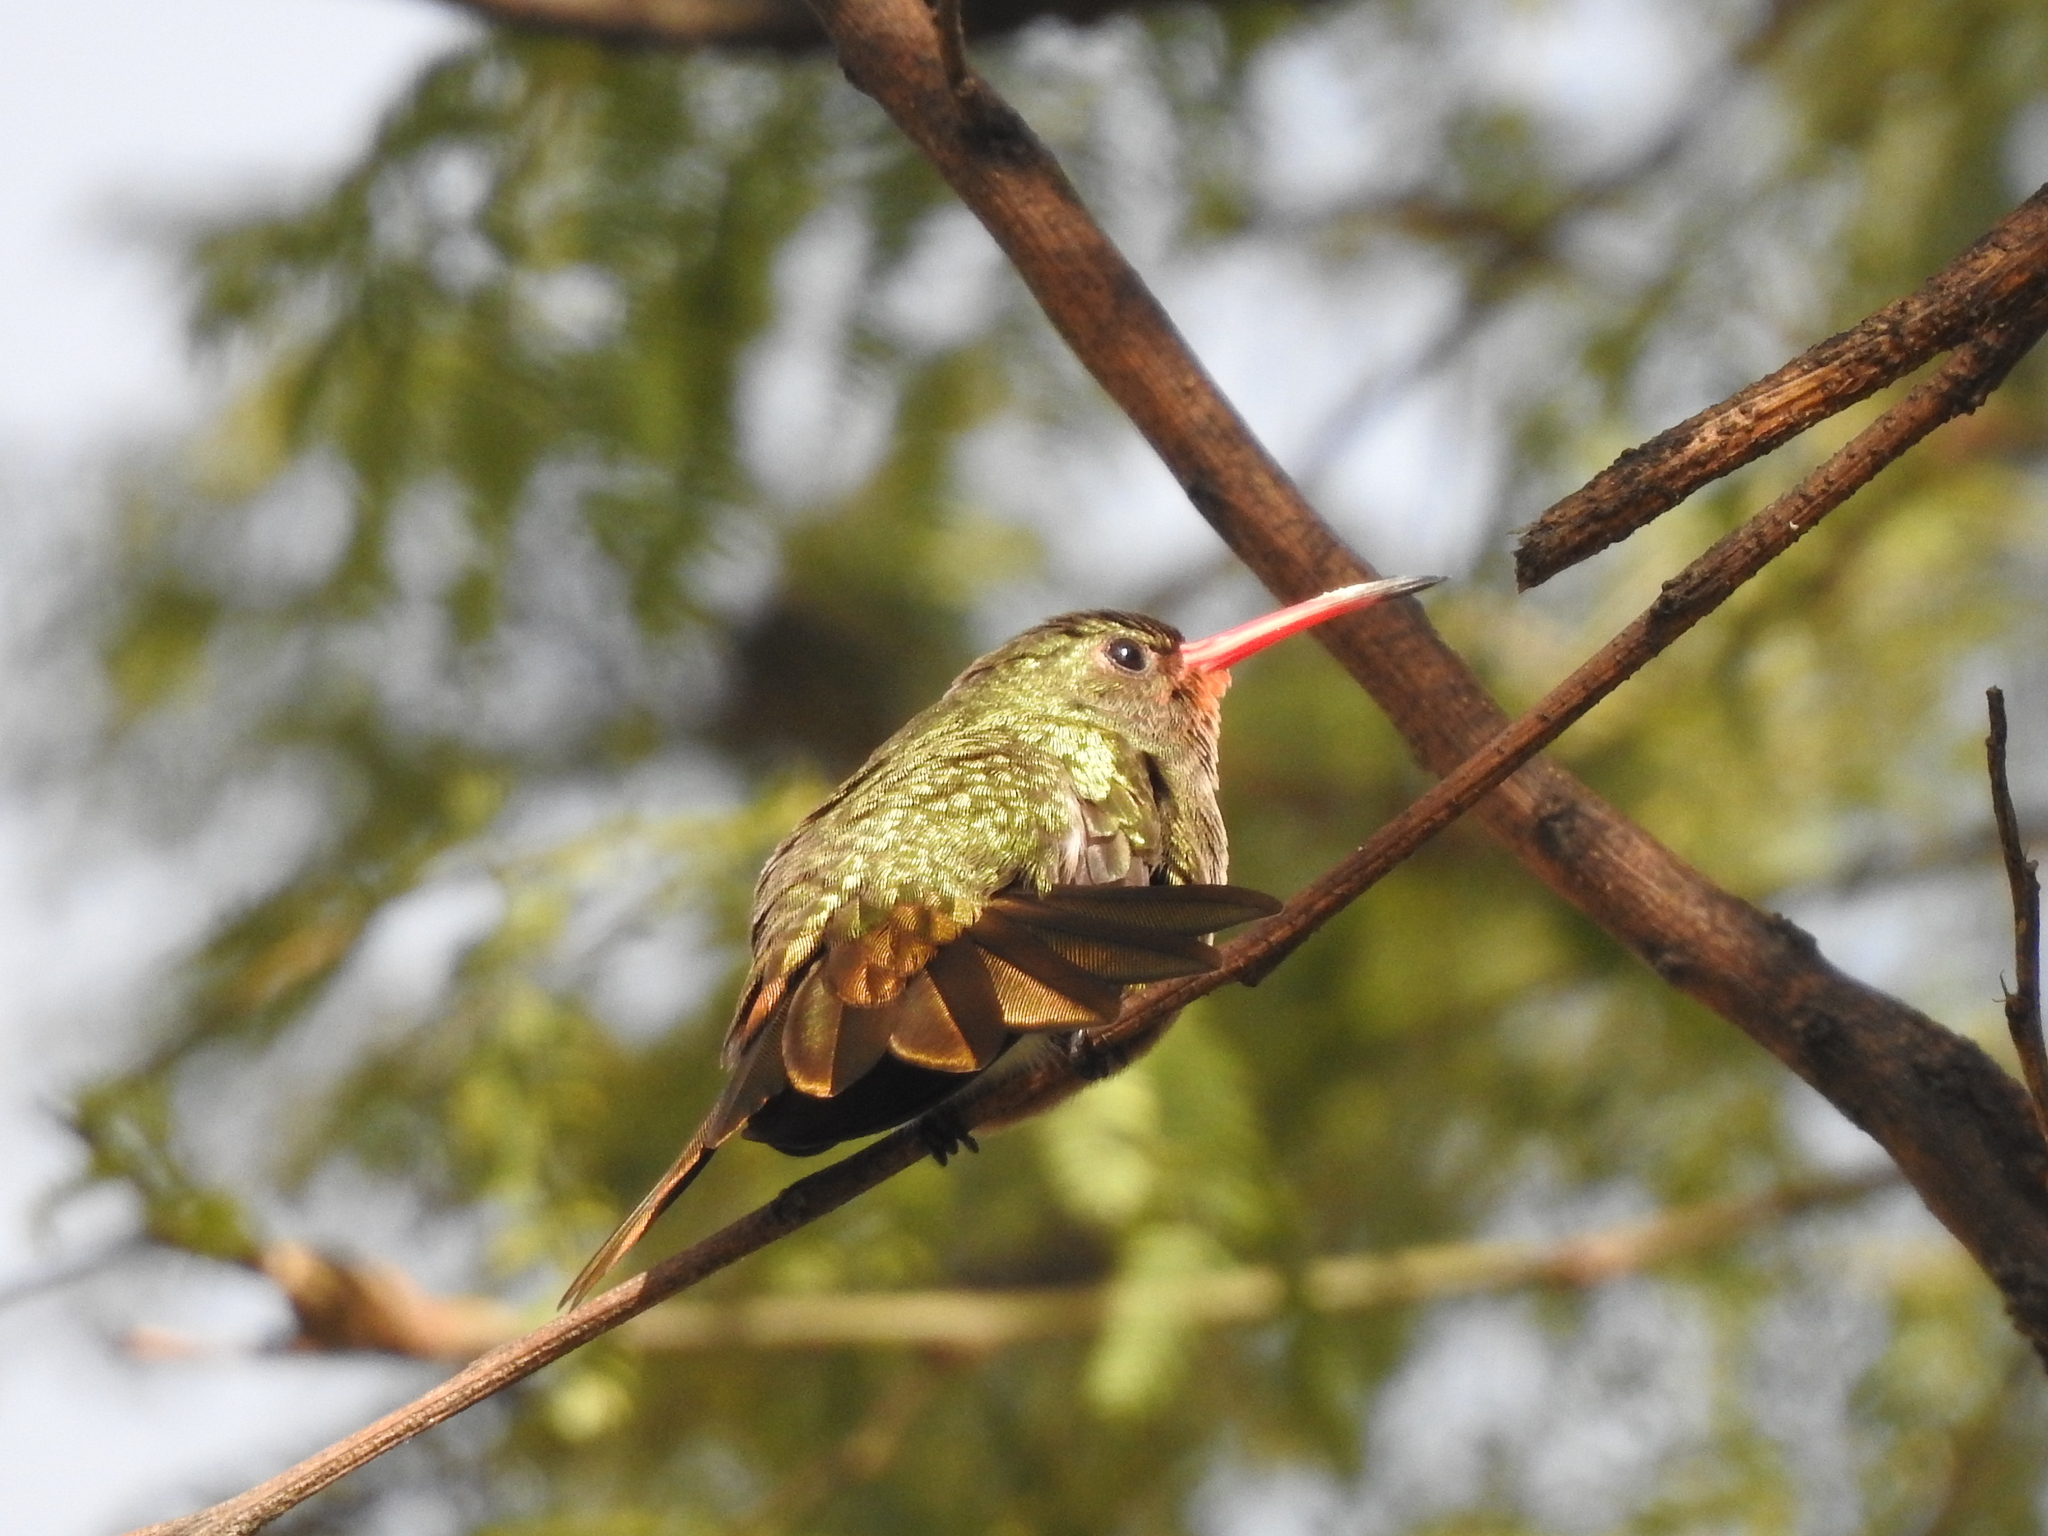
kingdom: Animalia
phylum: Chordata
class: Aves
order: Apodiformes
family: Trochilidae
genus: Hylocharis
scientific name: Hylocharis chrysura
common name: Gilded sapphire
